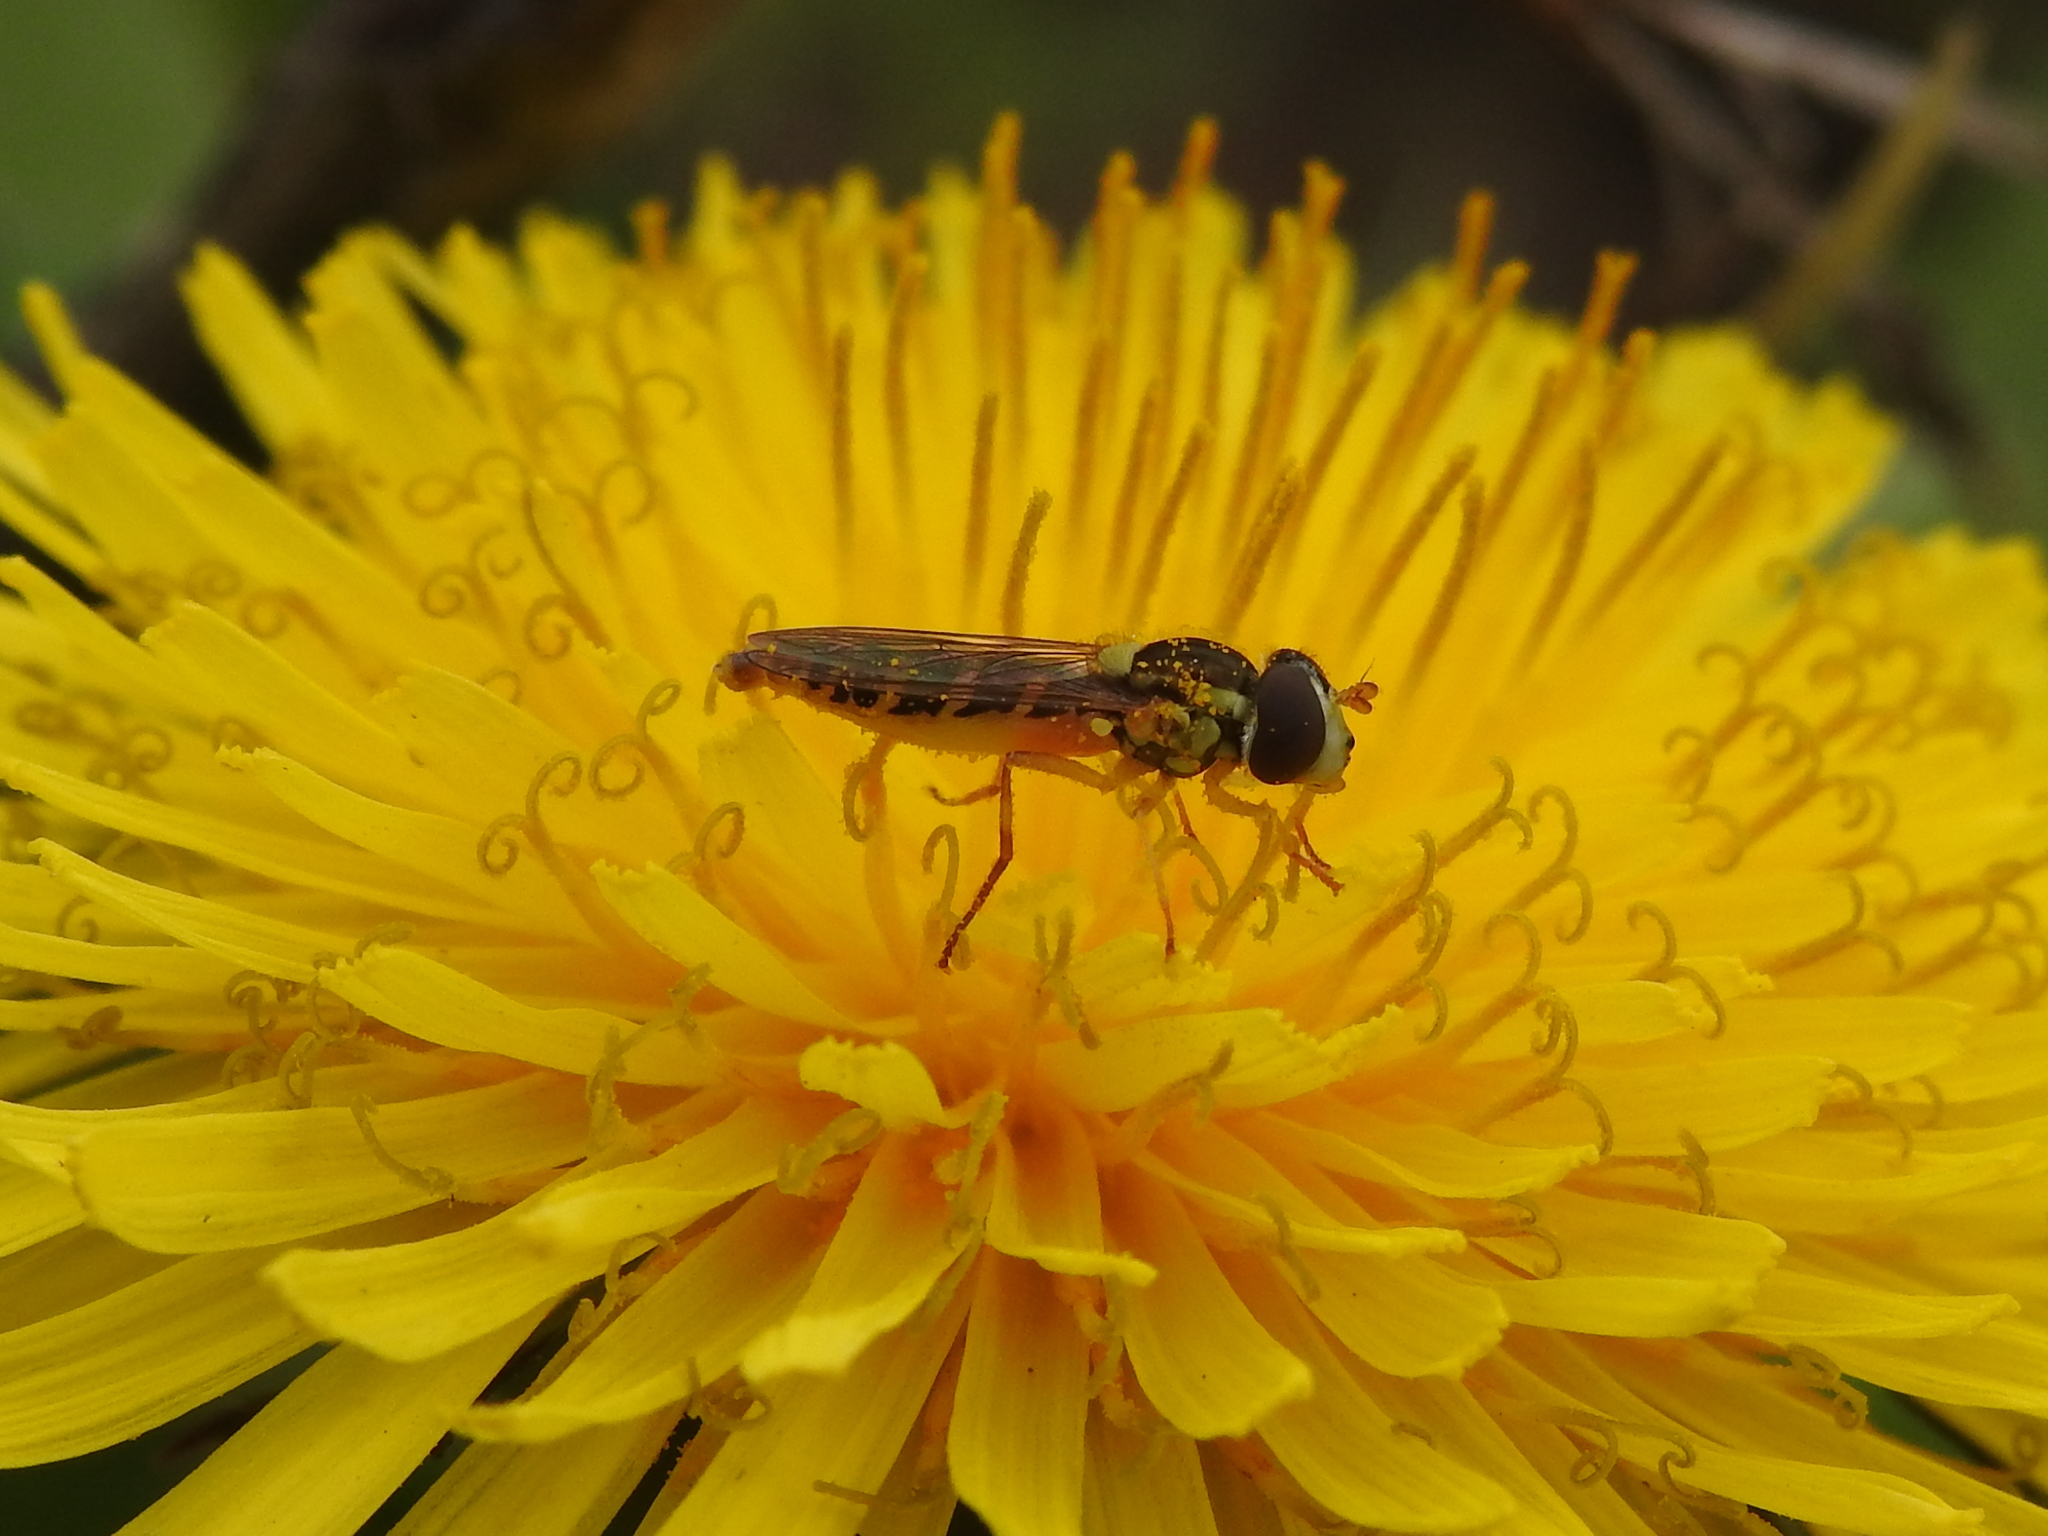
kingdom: Animalia
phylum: Arthropoda
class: Insecta
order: Diptera
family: Syrphidae
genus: Sphaerophoria
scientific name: Sphaerophoria
